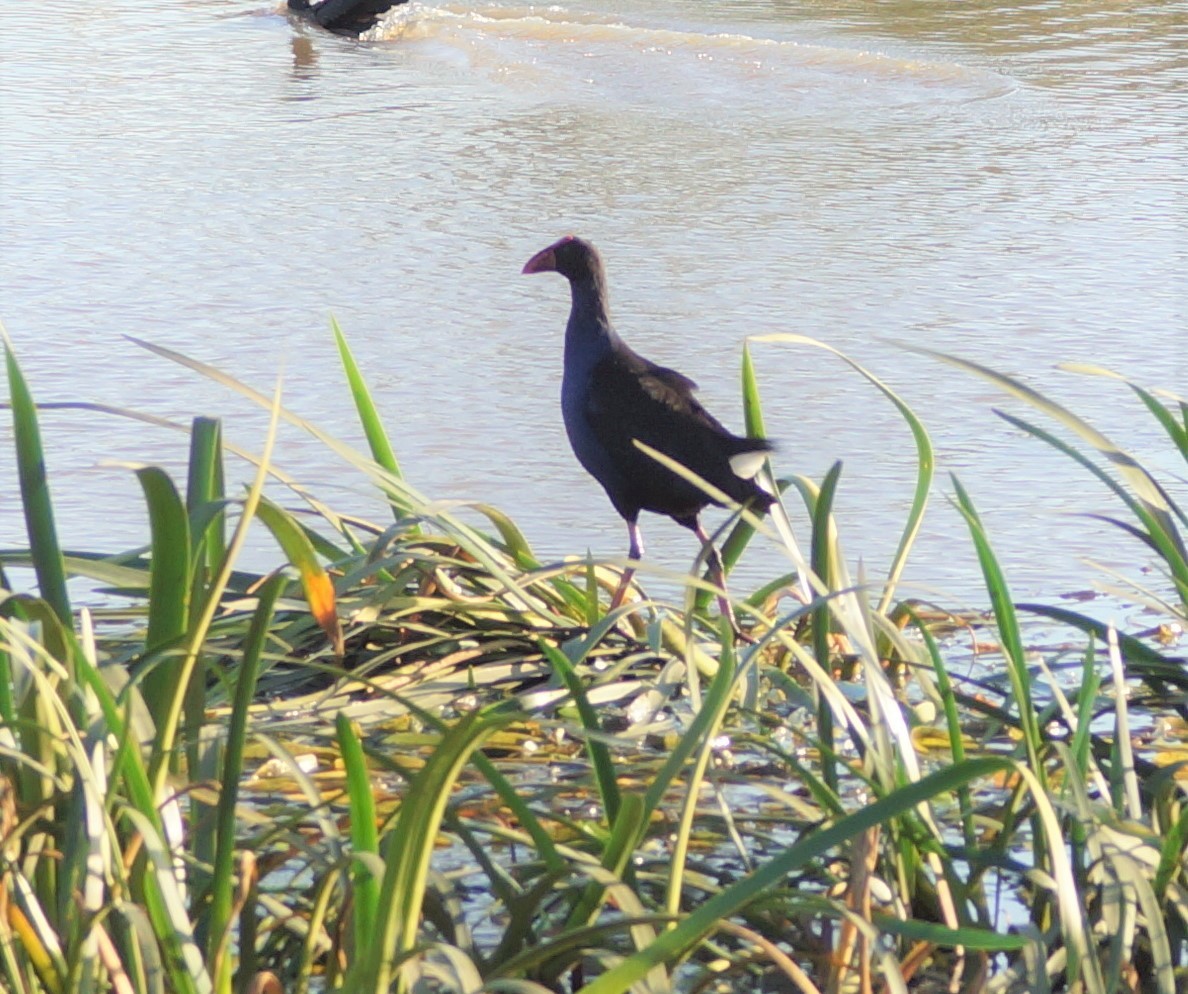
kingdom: Animalia
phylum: Chordata
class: Aves
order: Gruiformes
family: Rallidae
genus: Porphyrio
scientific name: Porphyrio melanotus
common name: Australasian swamphen
